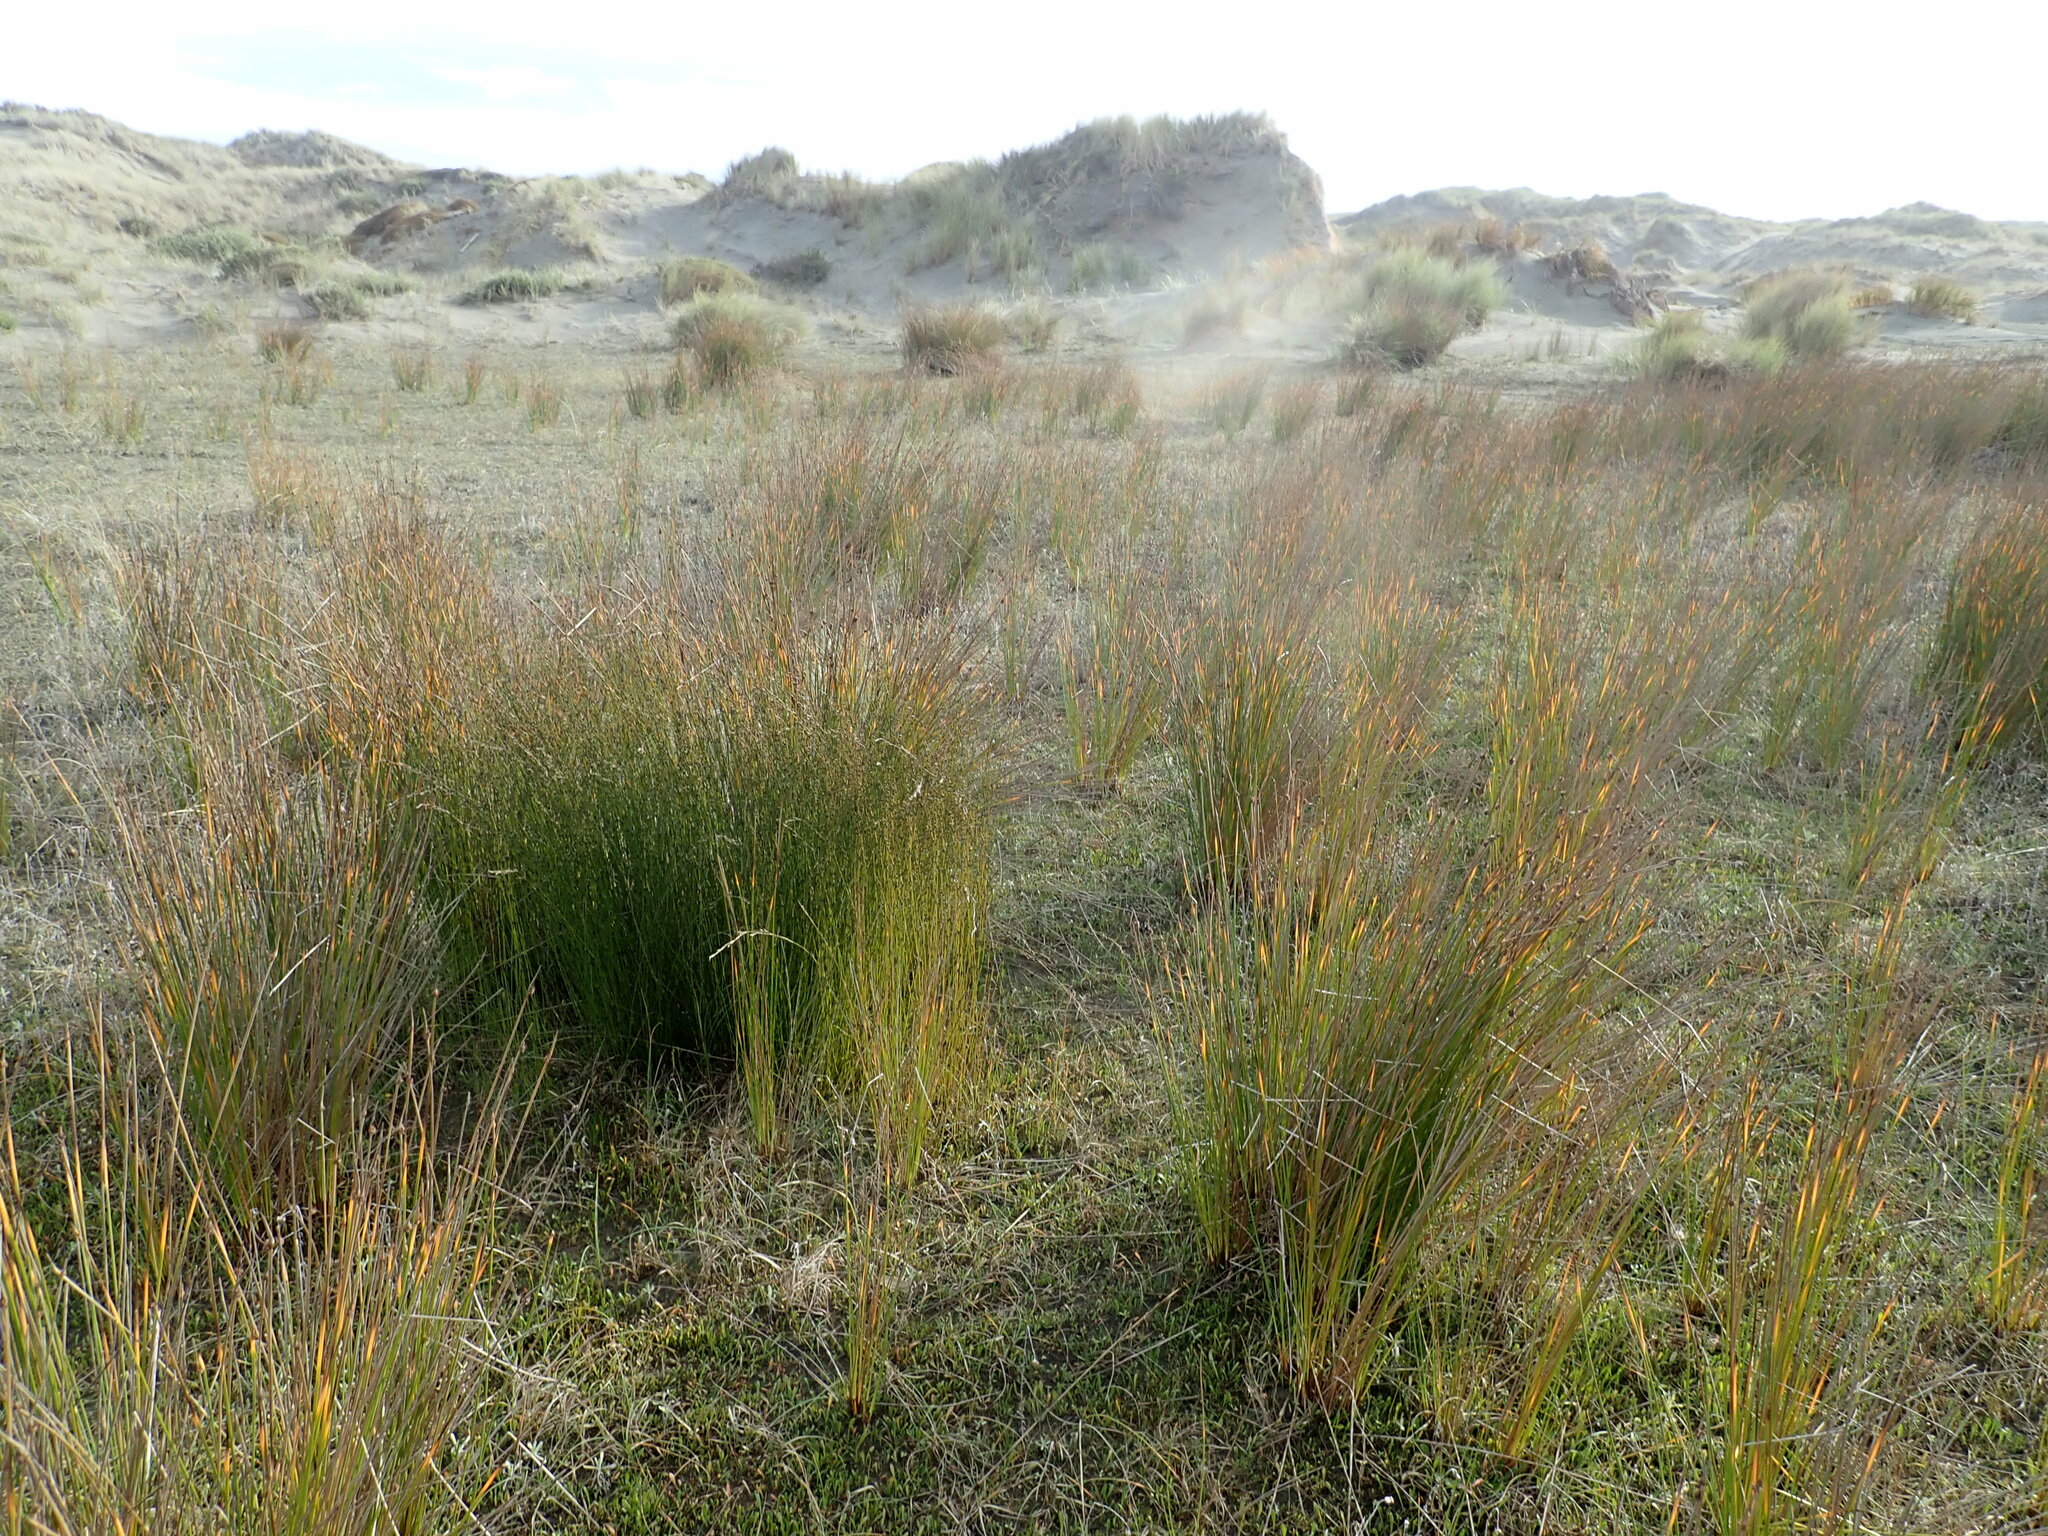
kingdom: Plantae
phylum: Tracheophyta
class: Liliopsida
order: Poales
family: Restionaceae
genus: Apodasmia
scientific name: Apodasmia similis
